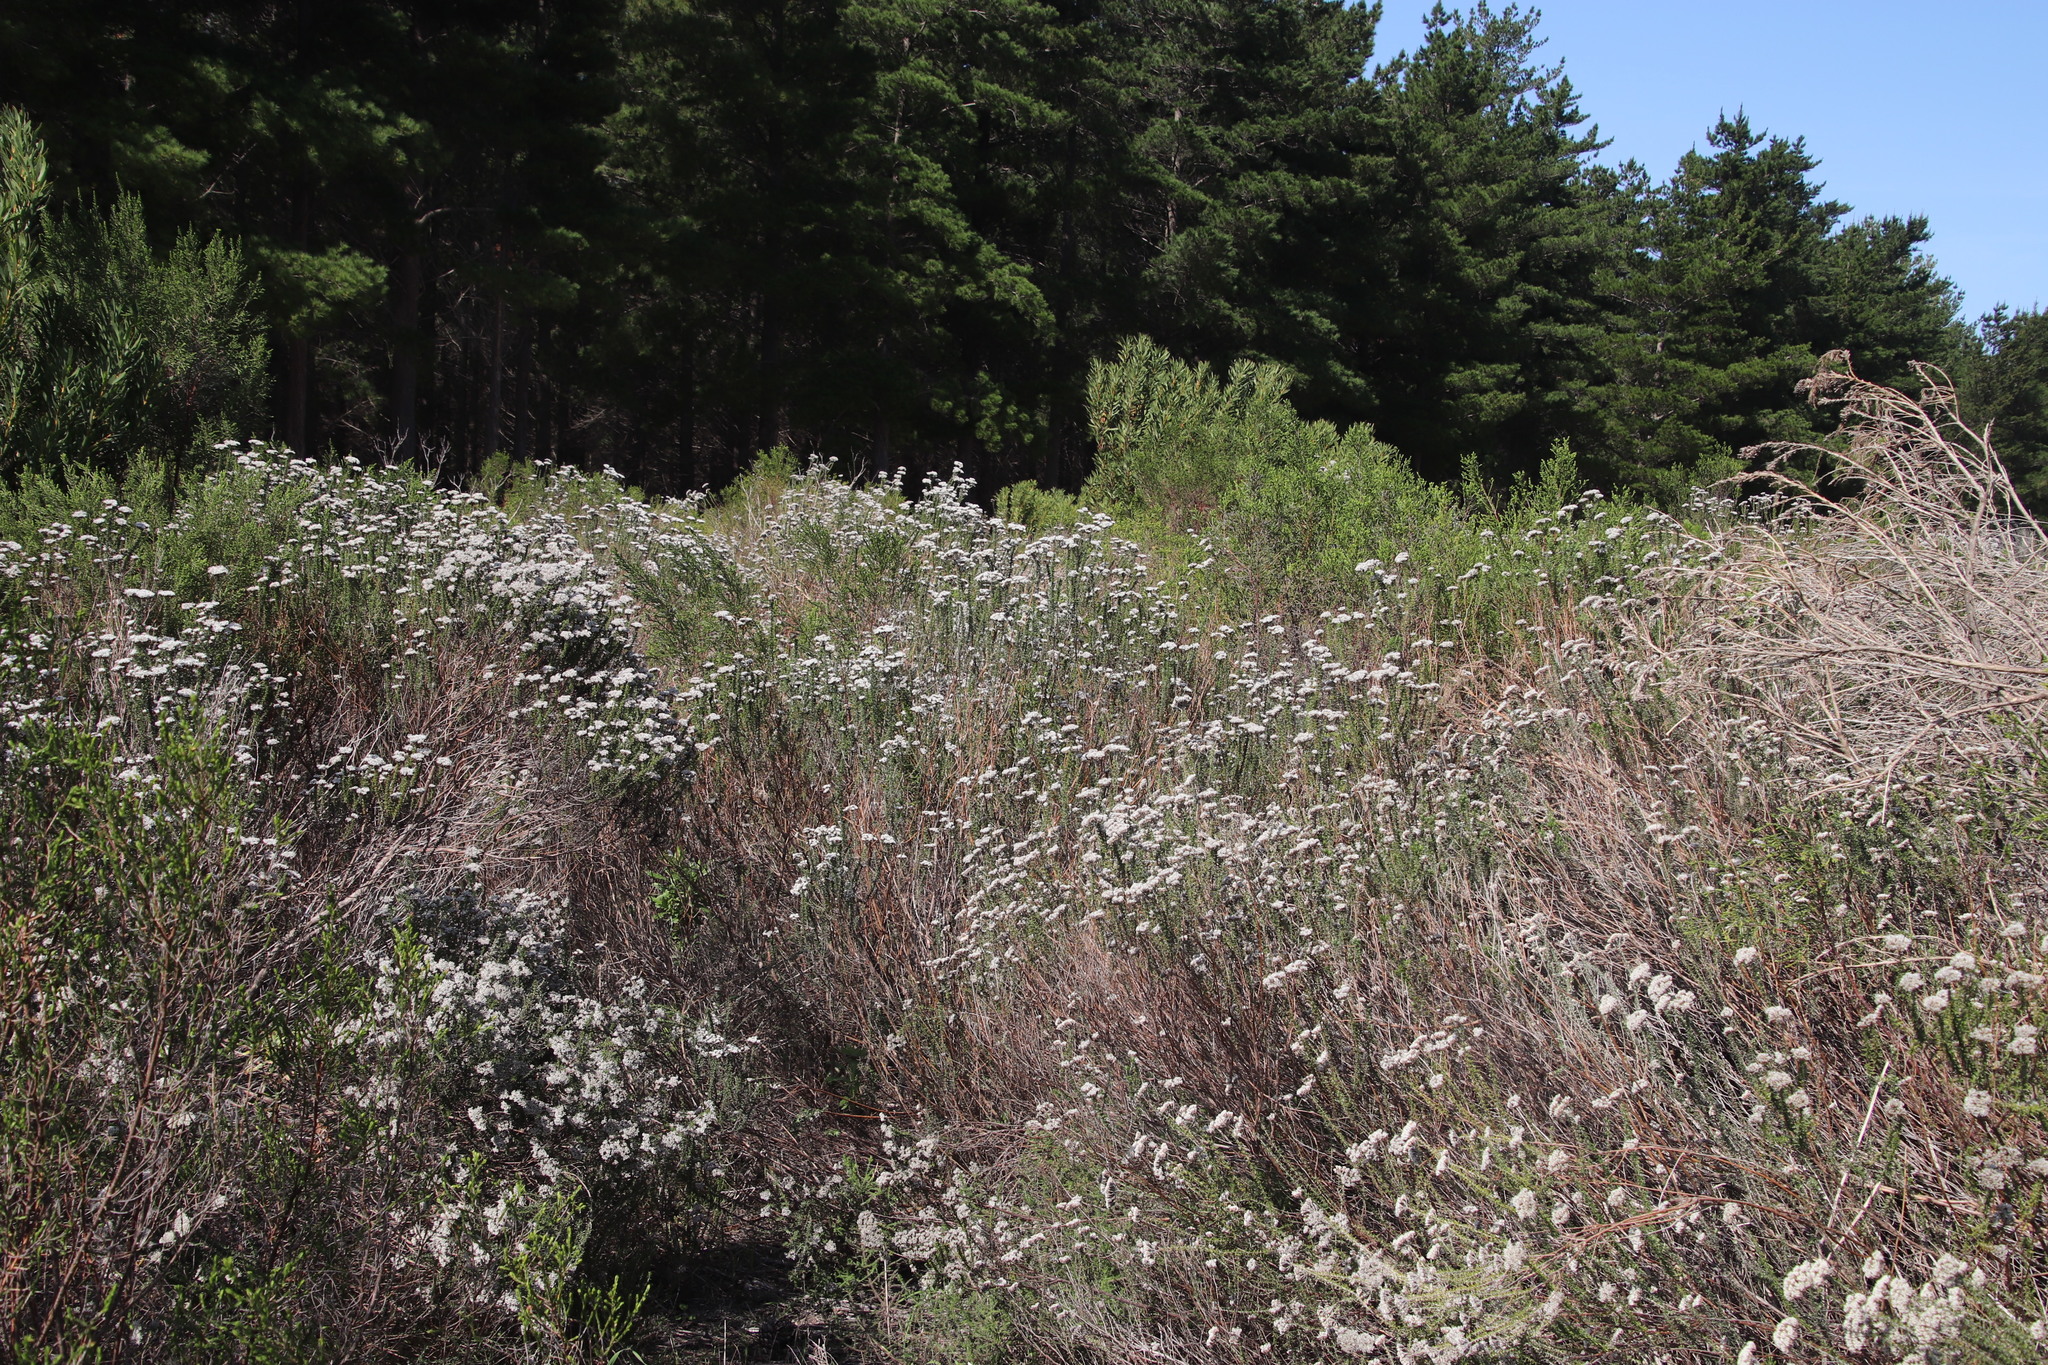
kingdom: Plantae
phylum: Tracheophyta
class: Magnoliopsida
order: Asterales
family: Asteraceae
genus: Metalasia
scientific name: Metalasia densa
